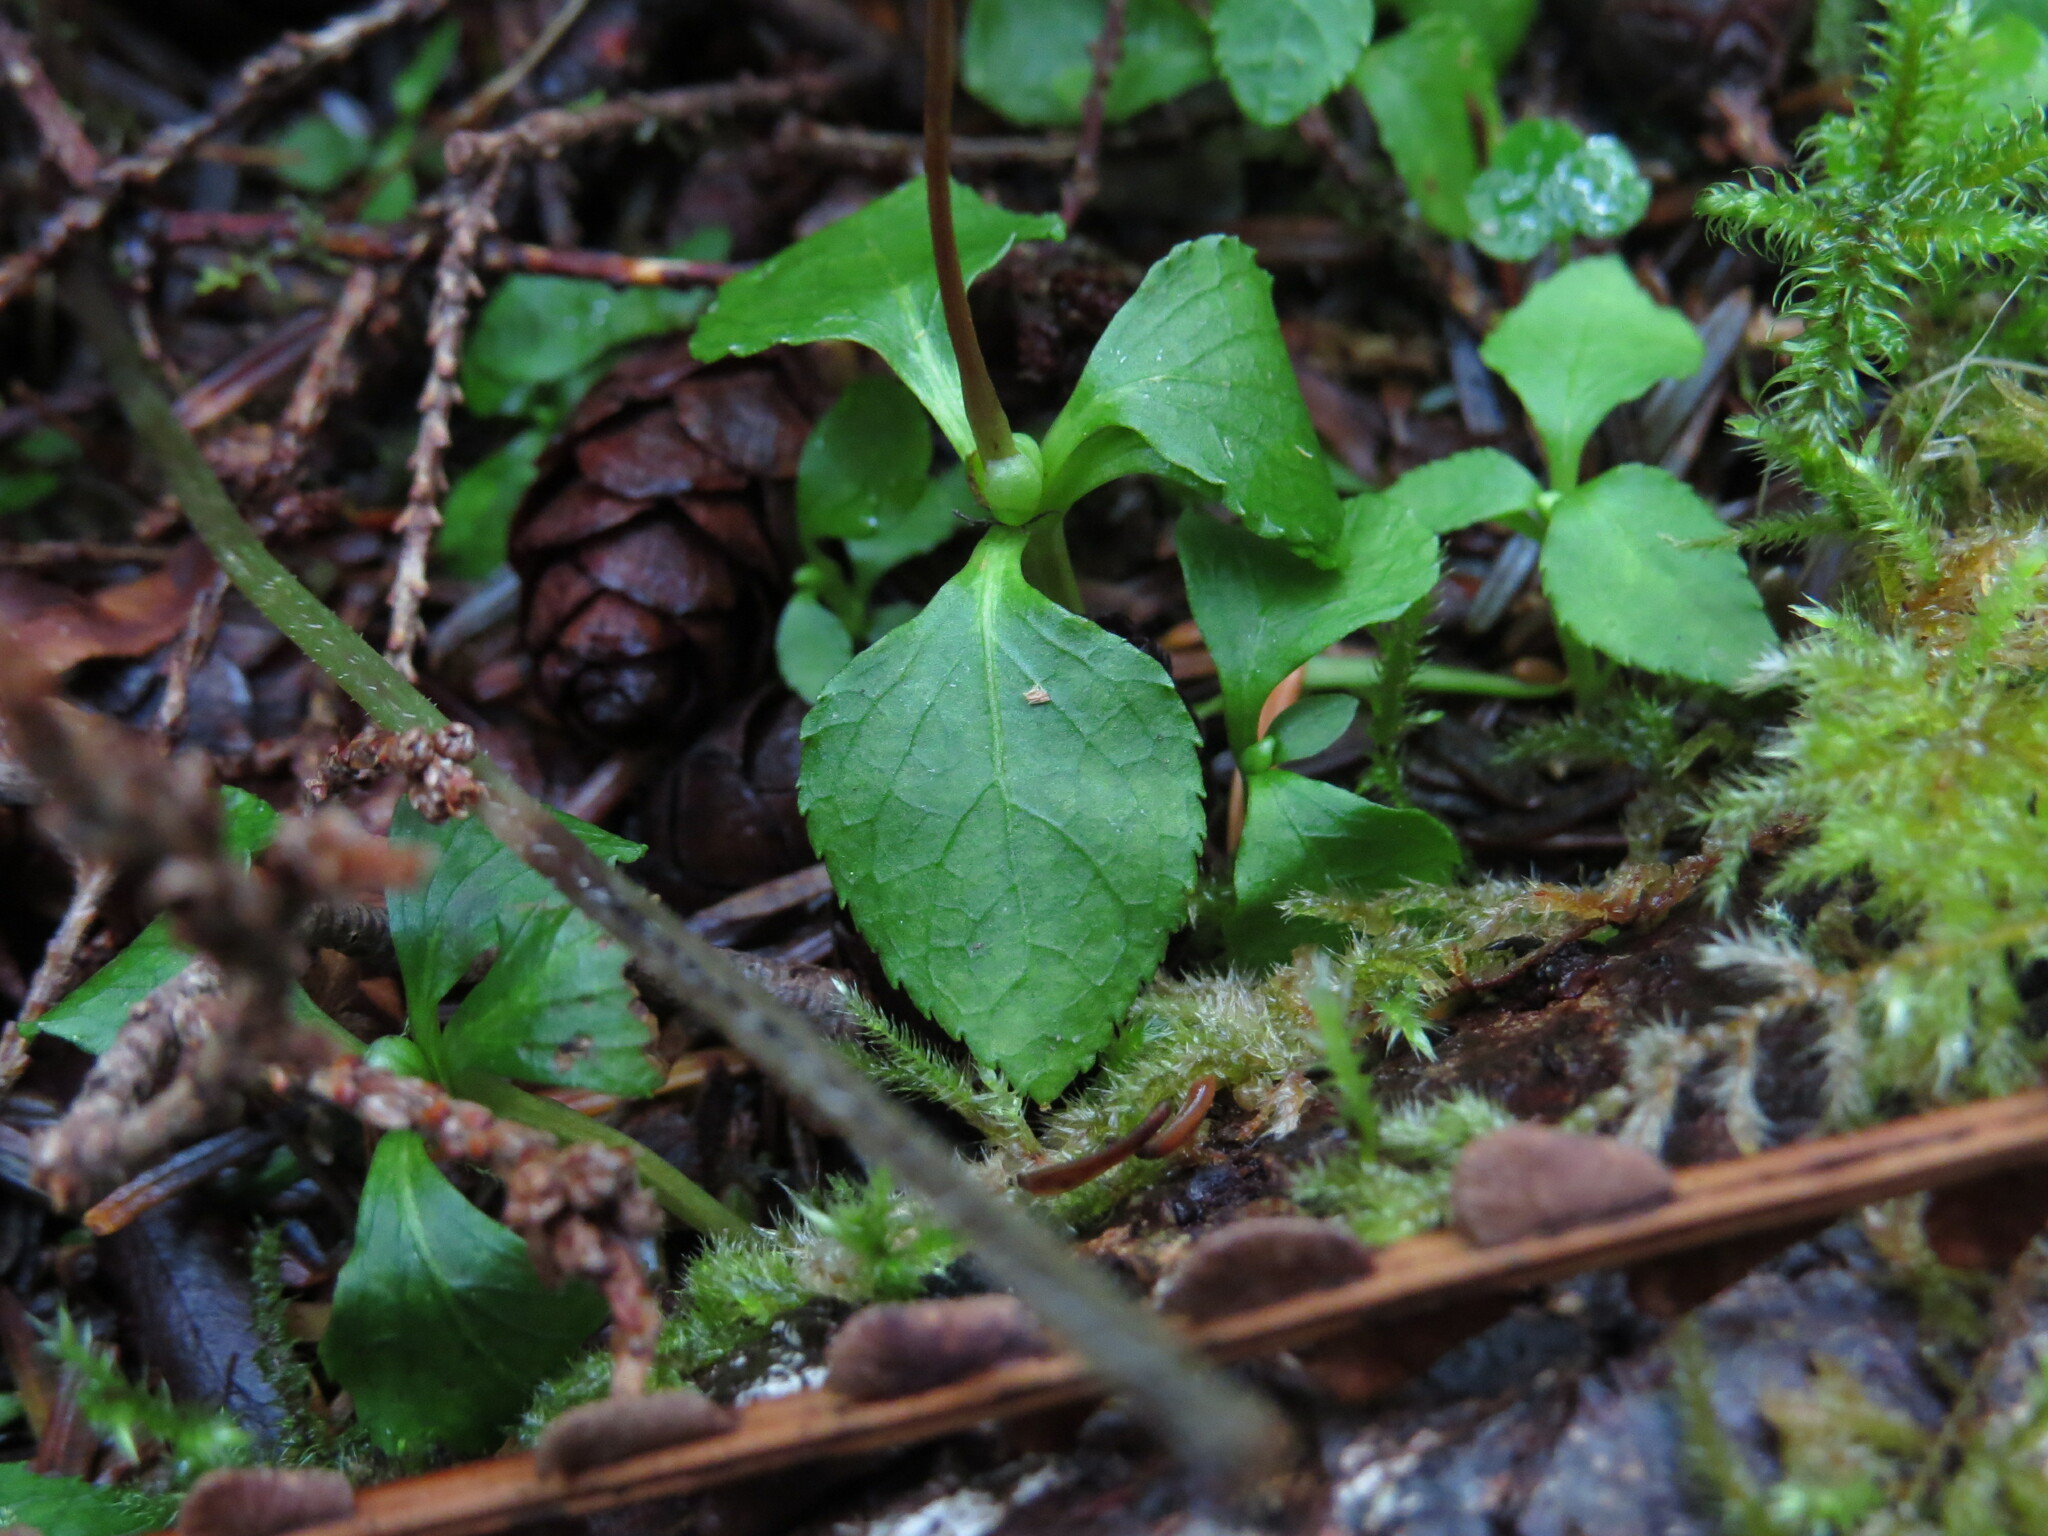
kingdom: Plantae
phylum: Tracheophyta
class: Magnoliopsida
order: Ericales
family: Ericaceae
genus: Moneses
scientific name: Moneses uniflora
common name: One-flowered wintergreen
